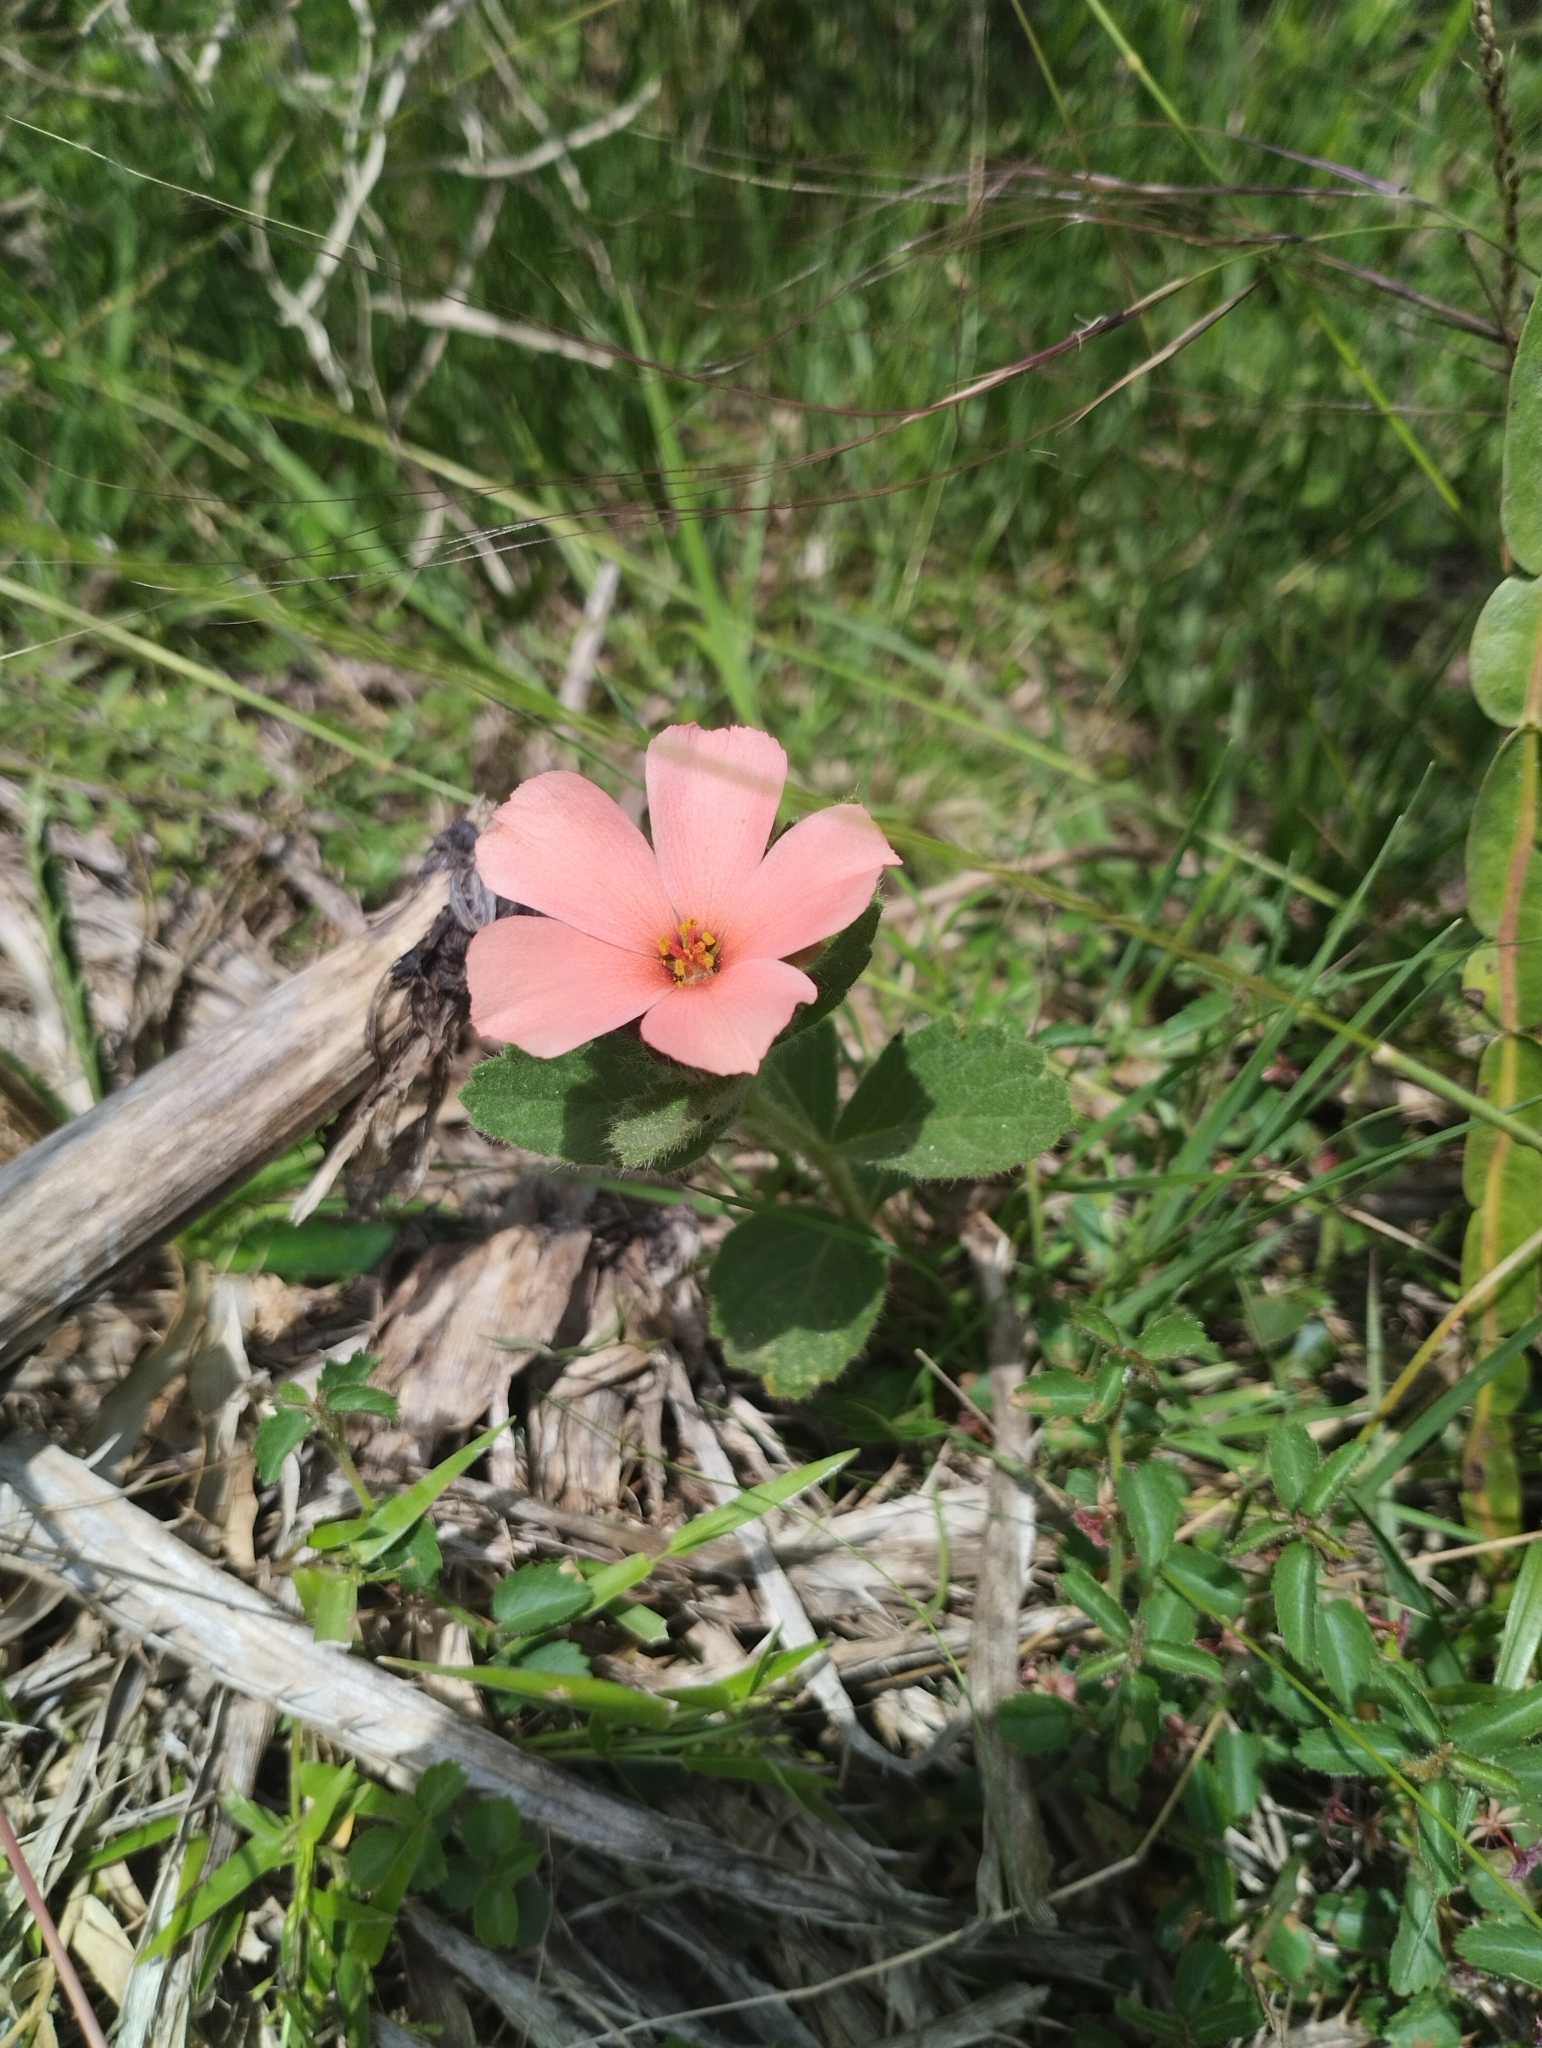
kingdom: Plantae
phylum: Tracheophyta
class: Magnoliopsida
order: Malpighiales
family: Turneraceae
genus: Turnera
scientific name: Turnera sidoides
